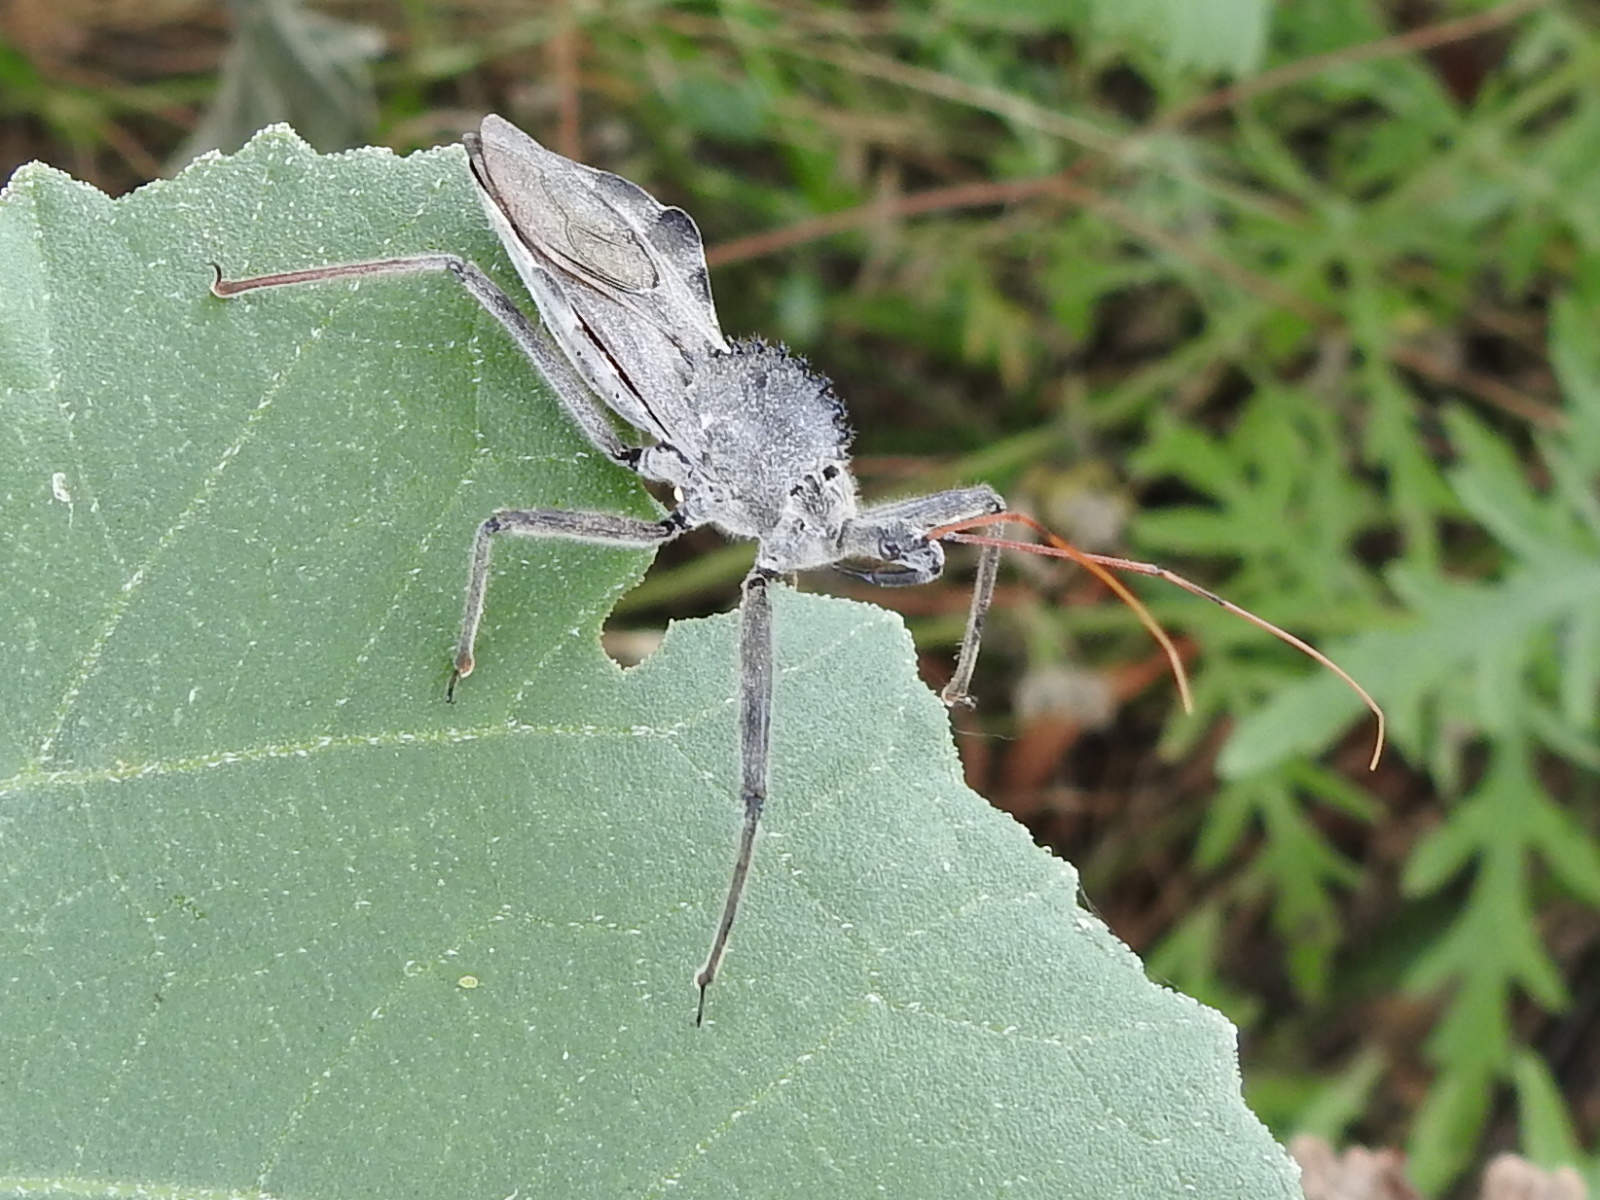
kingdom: Animalia
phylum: Arthropoda
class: Insecta
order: Hemiptera
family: Reduviidae
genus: Arilus
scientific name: Arilus cristatus
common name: North american wheel bug
